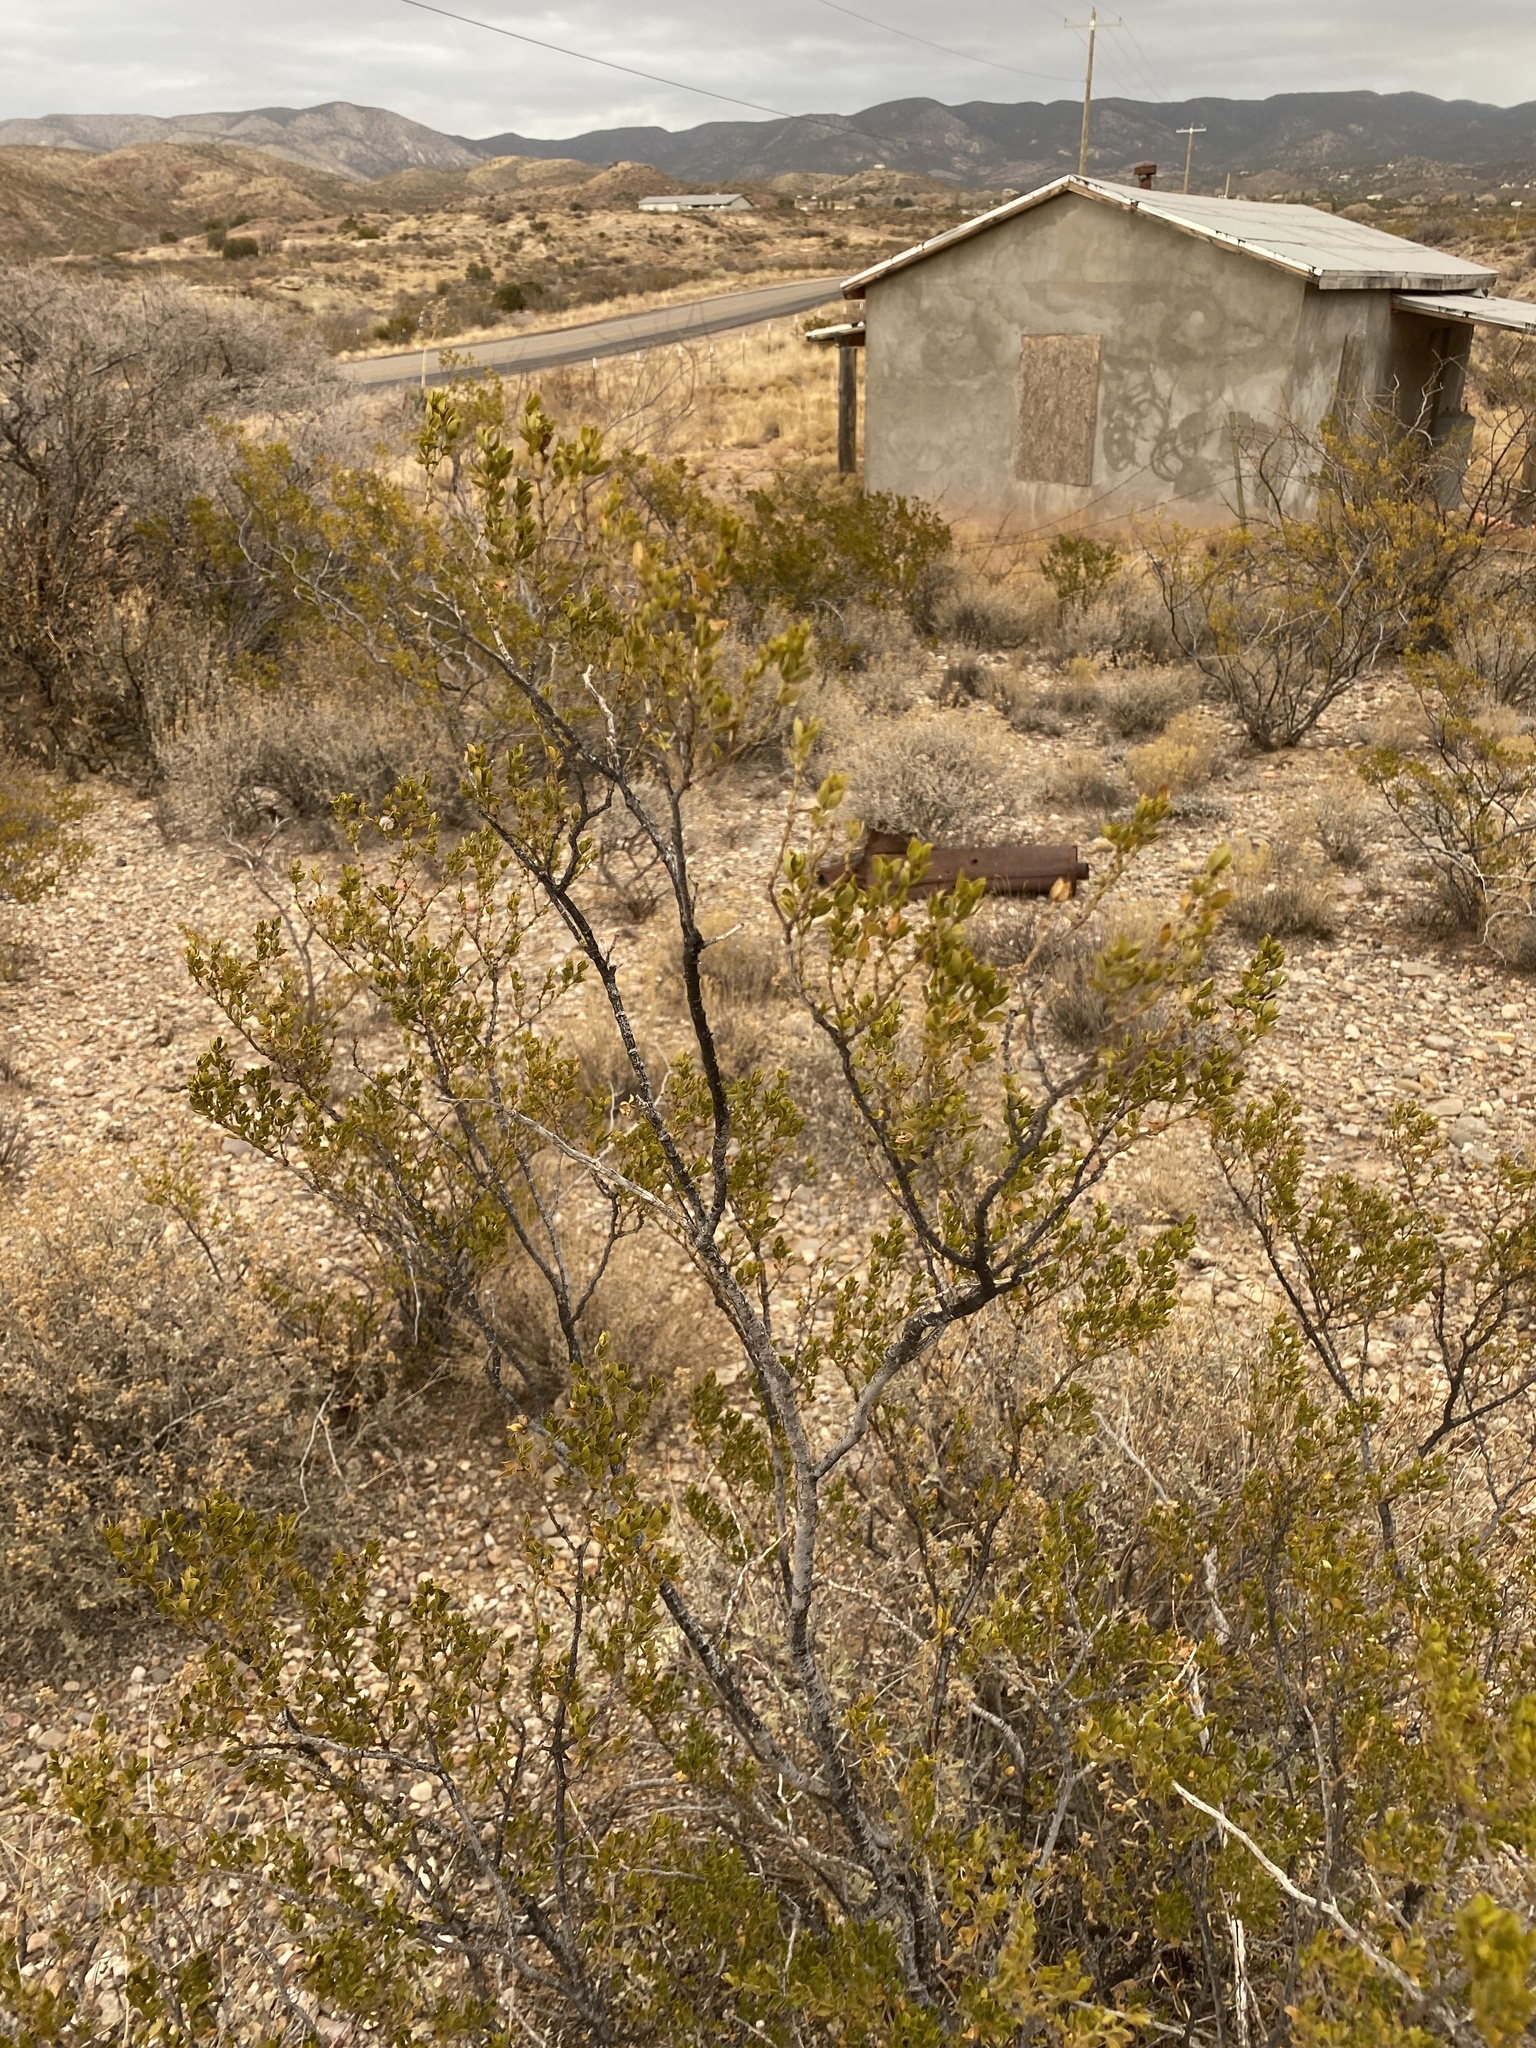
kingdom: Plantae
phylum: Tracheophyta
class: Magnoliopsida
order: Zygophyllales
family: Zygophyllaceae
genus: Larrea
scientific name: Larrea tridentata
